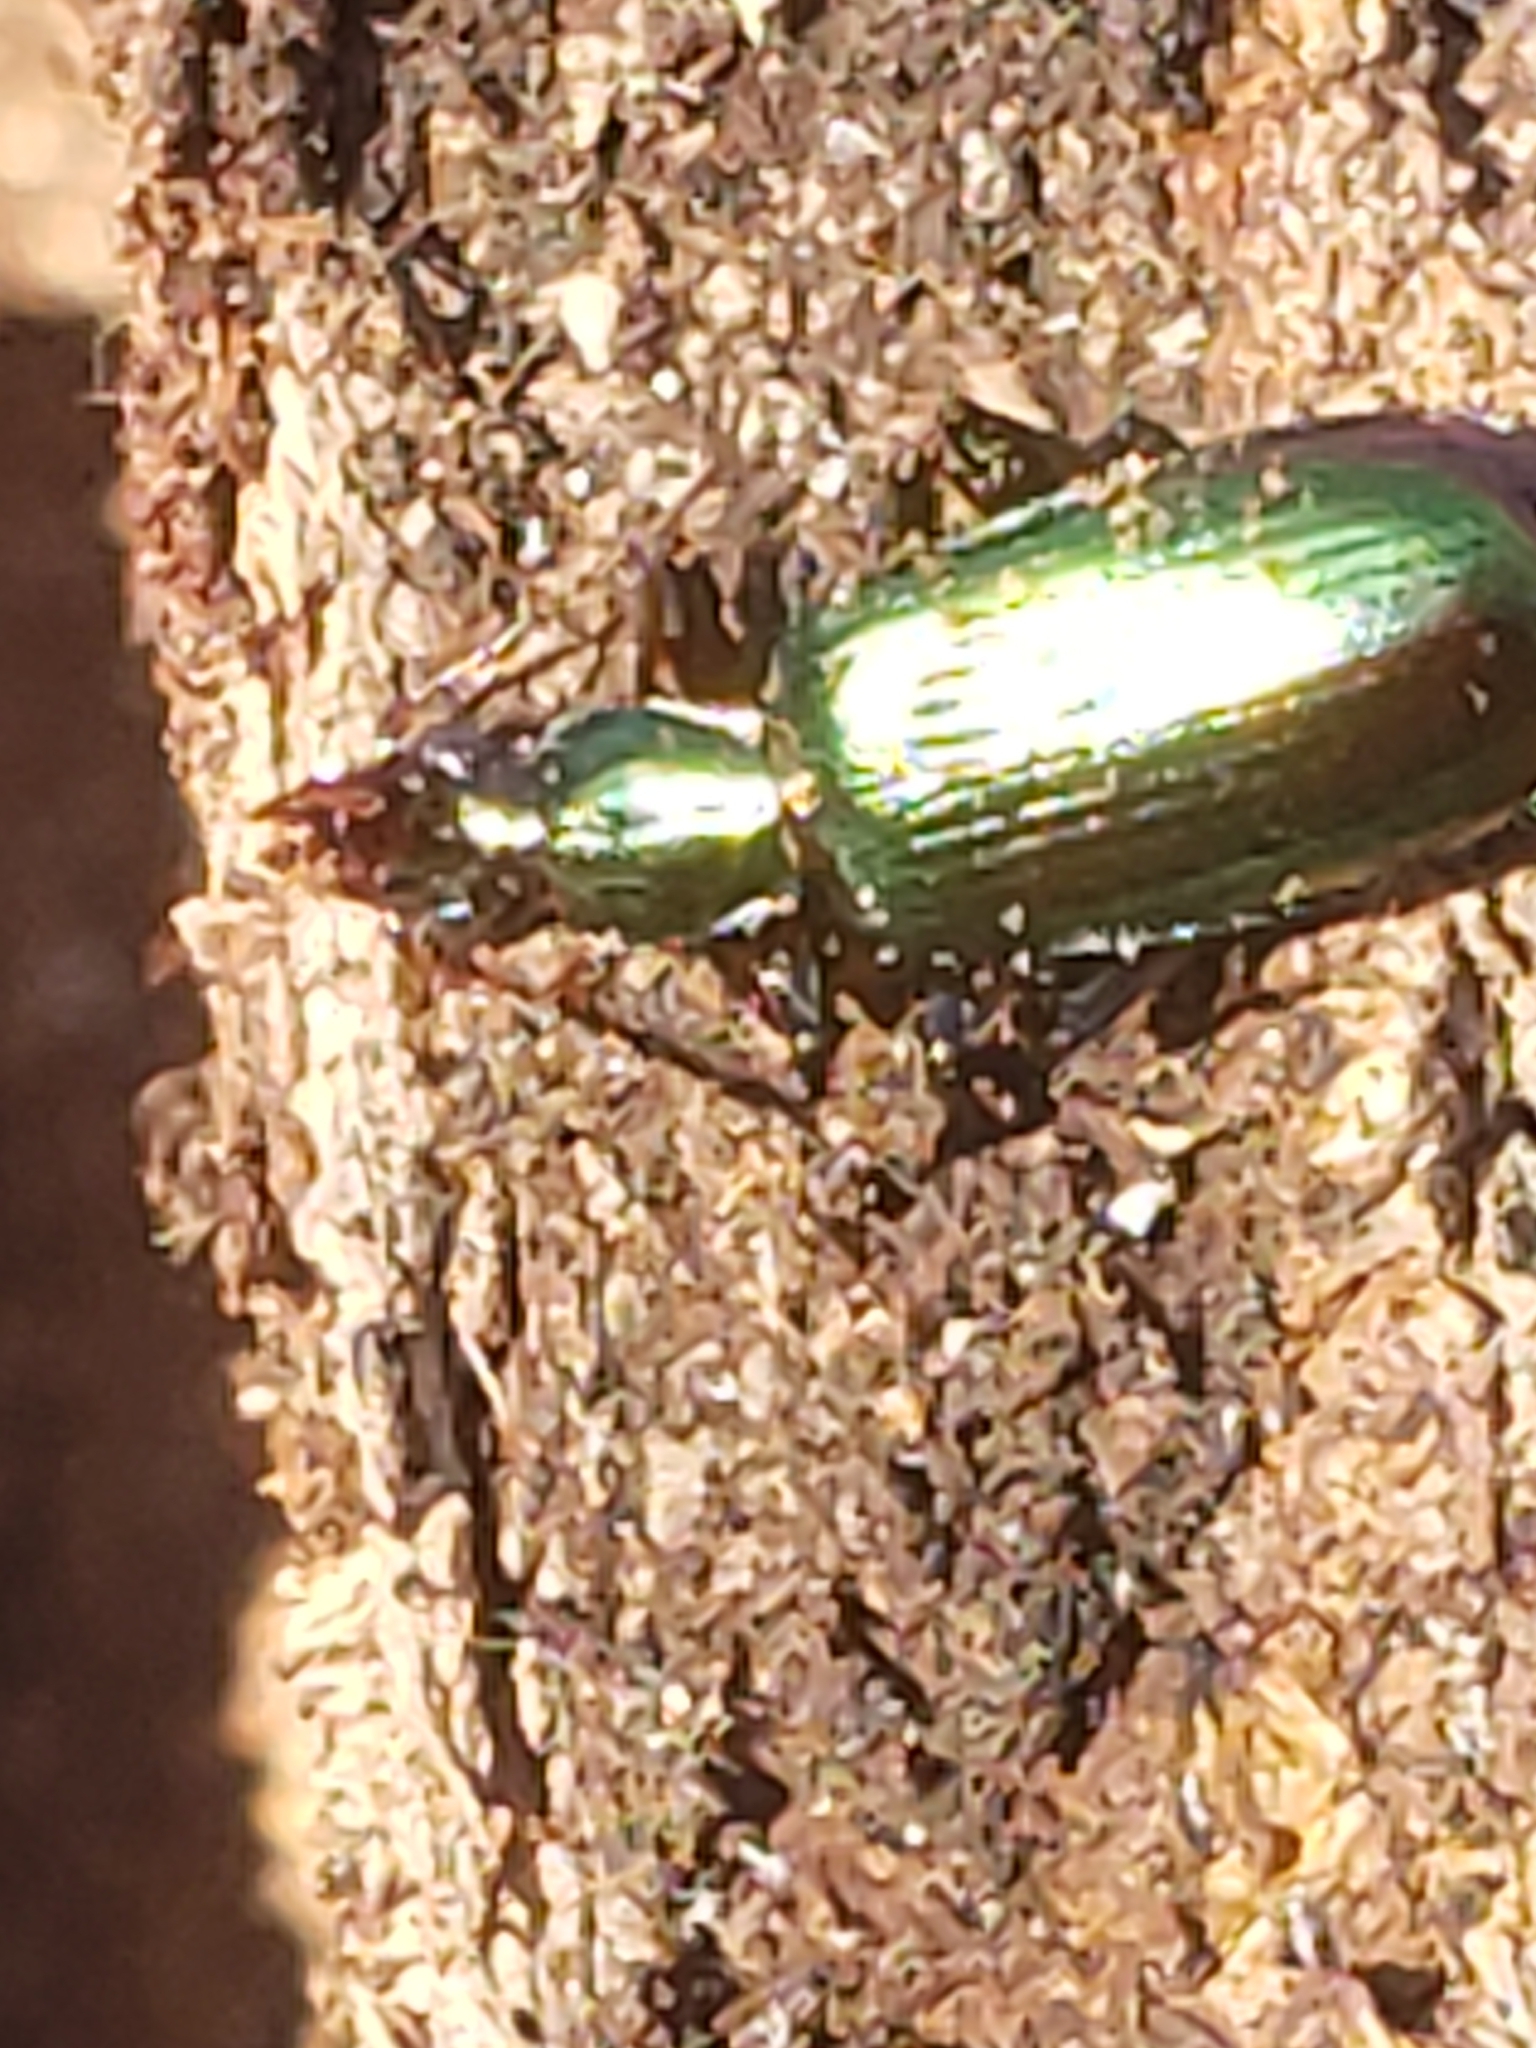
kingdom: Animalia
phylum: Arthropoda
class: Insecta
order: Coleoptera
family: Carabidae
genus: Calleida
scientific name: Calleida viridipennis
